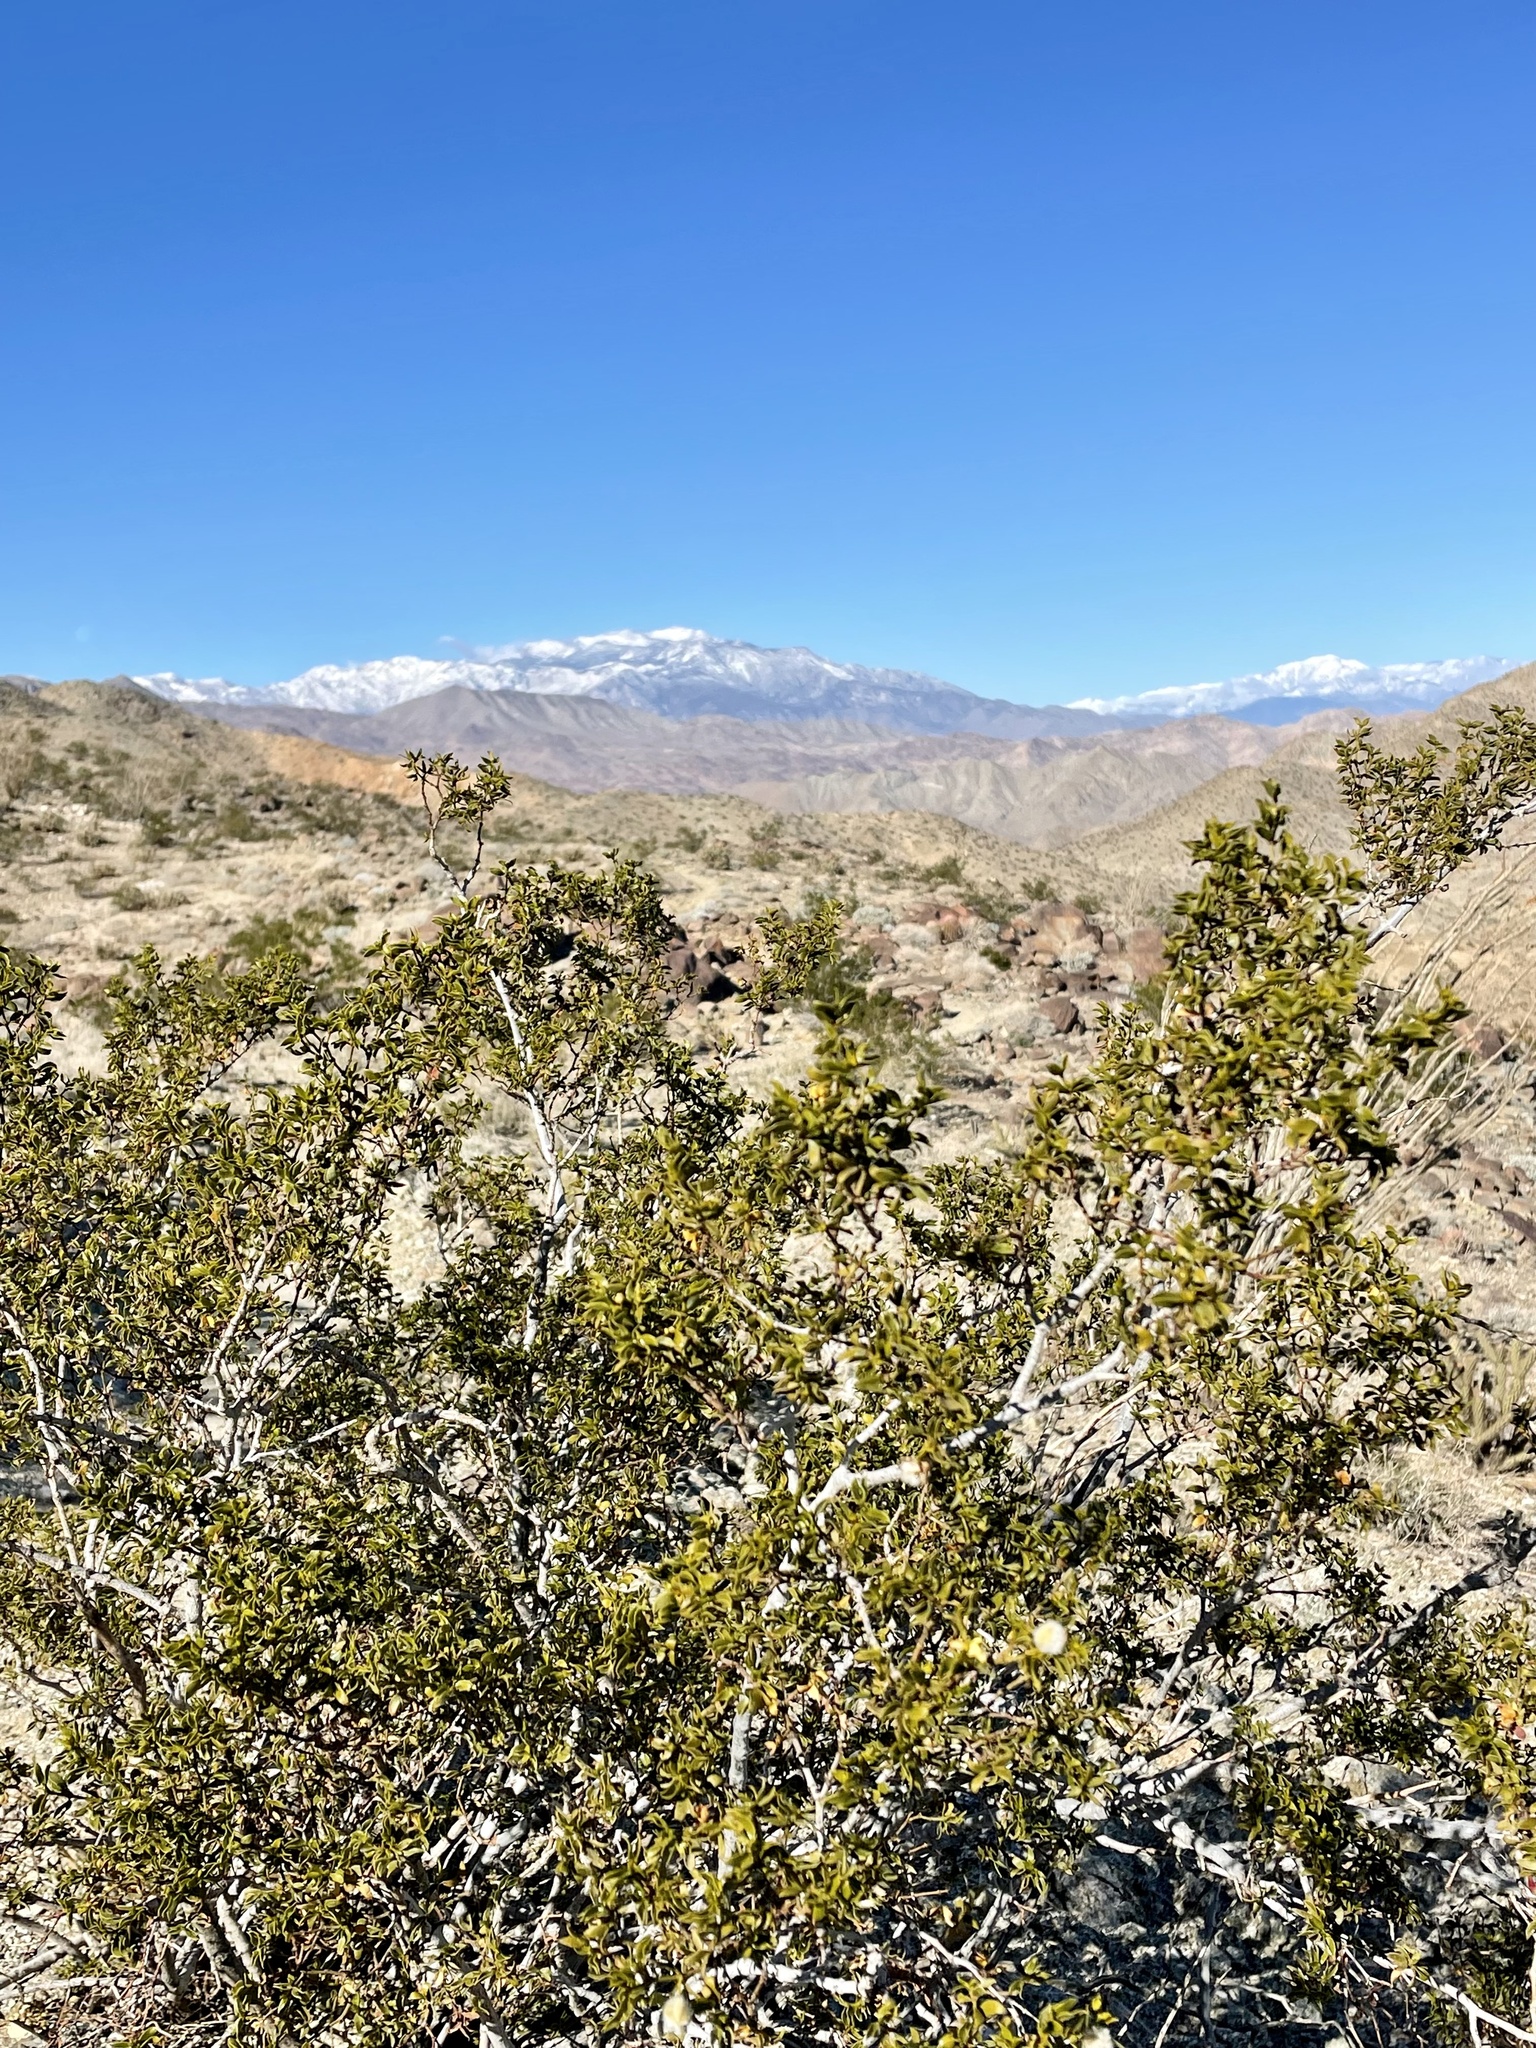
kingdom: Plantae
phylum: Tracheophyta
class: Magnoliopsida
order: Zygophyllales
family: Zygophyllaceae
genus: Larrea
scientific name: Larrea tridentata
